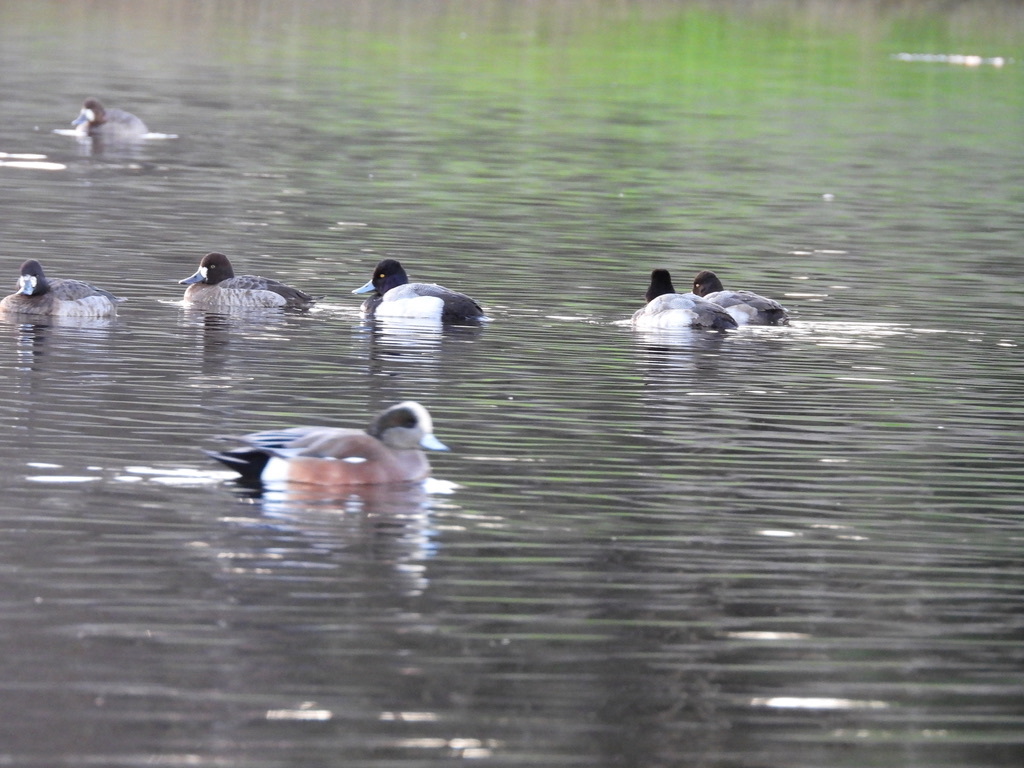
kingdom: Animalia
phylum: Chordata
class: Aves
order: Anseriformes
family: Anatidae
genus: Aythya
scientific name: Aythya affinis
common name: Lesser scaup
